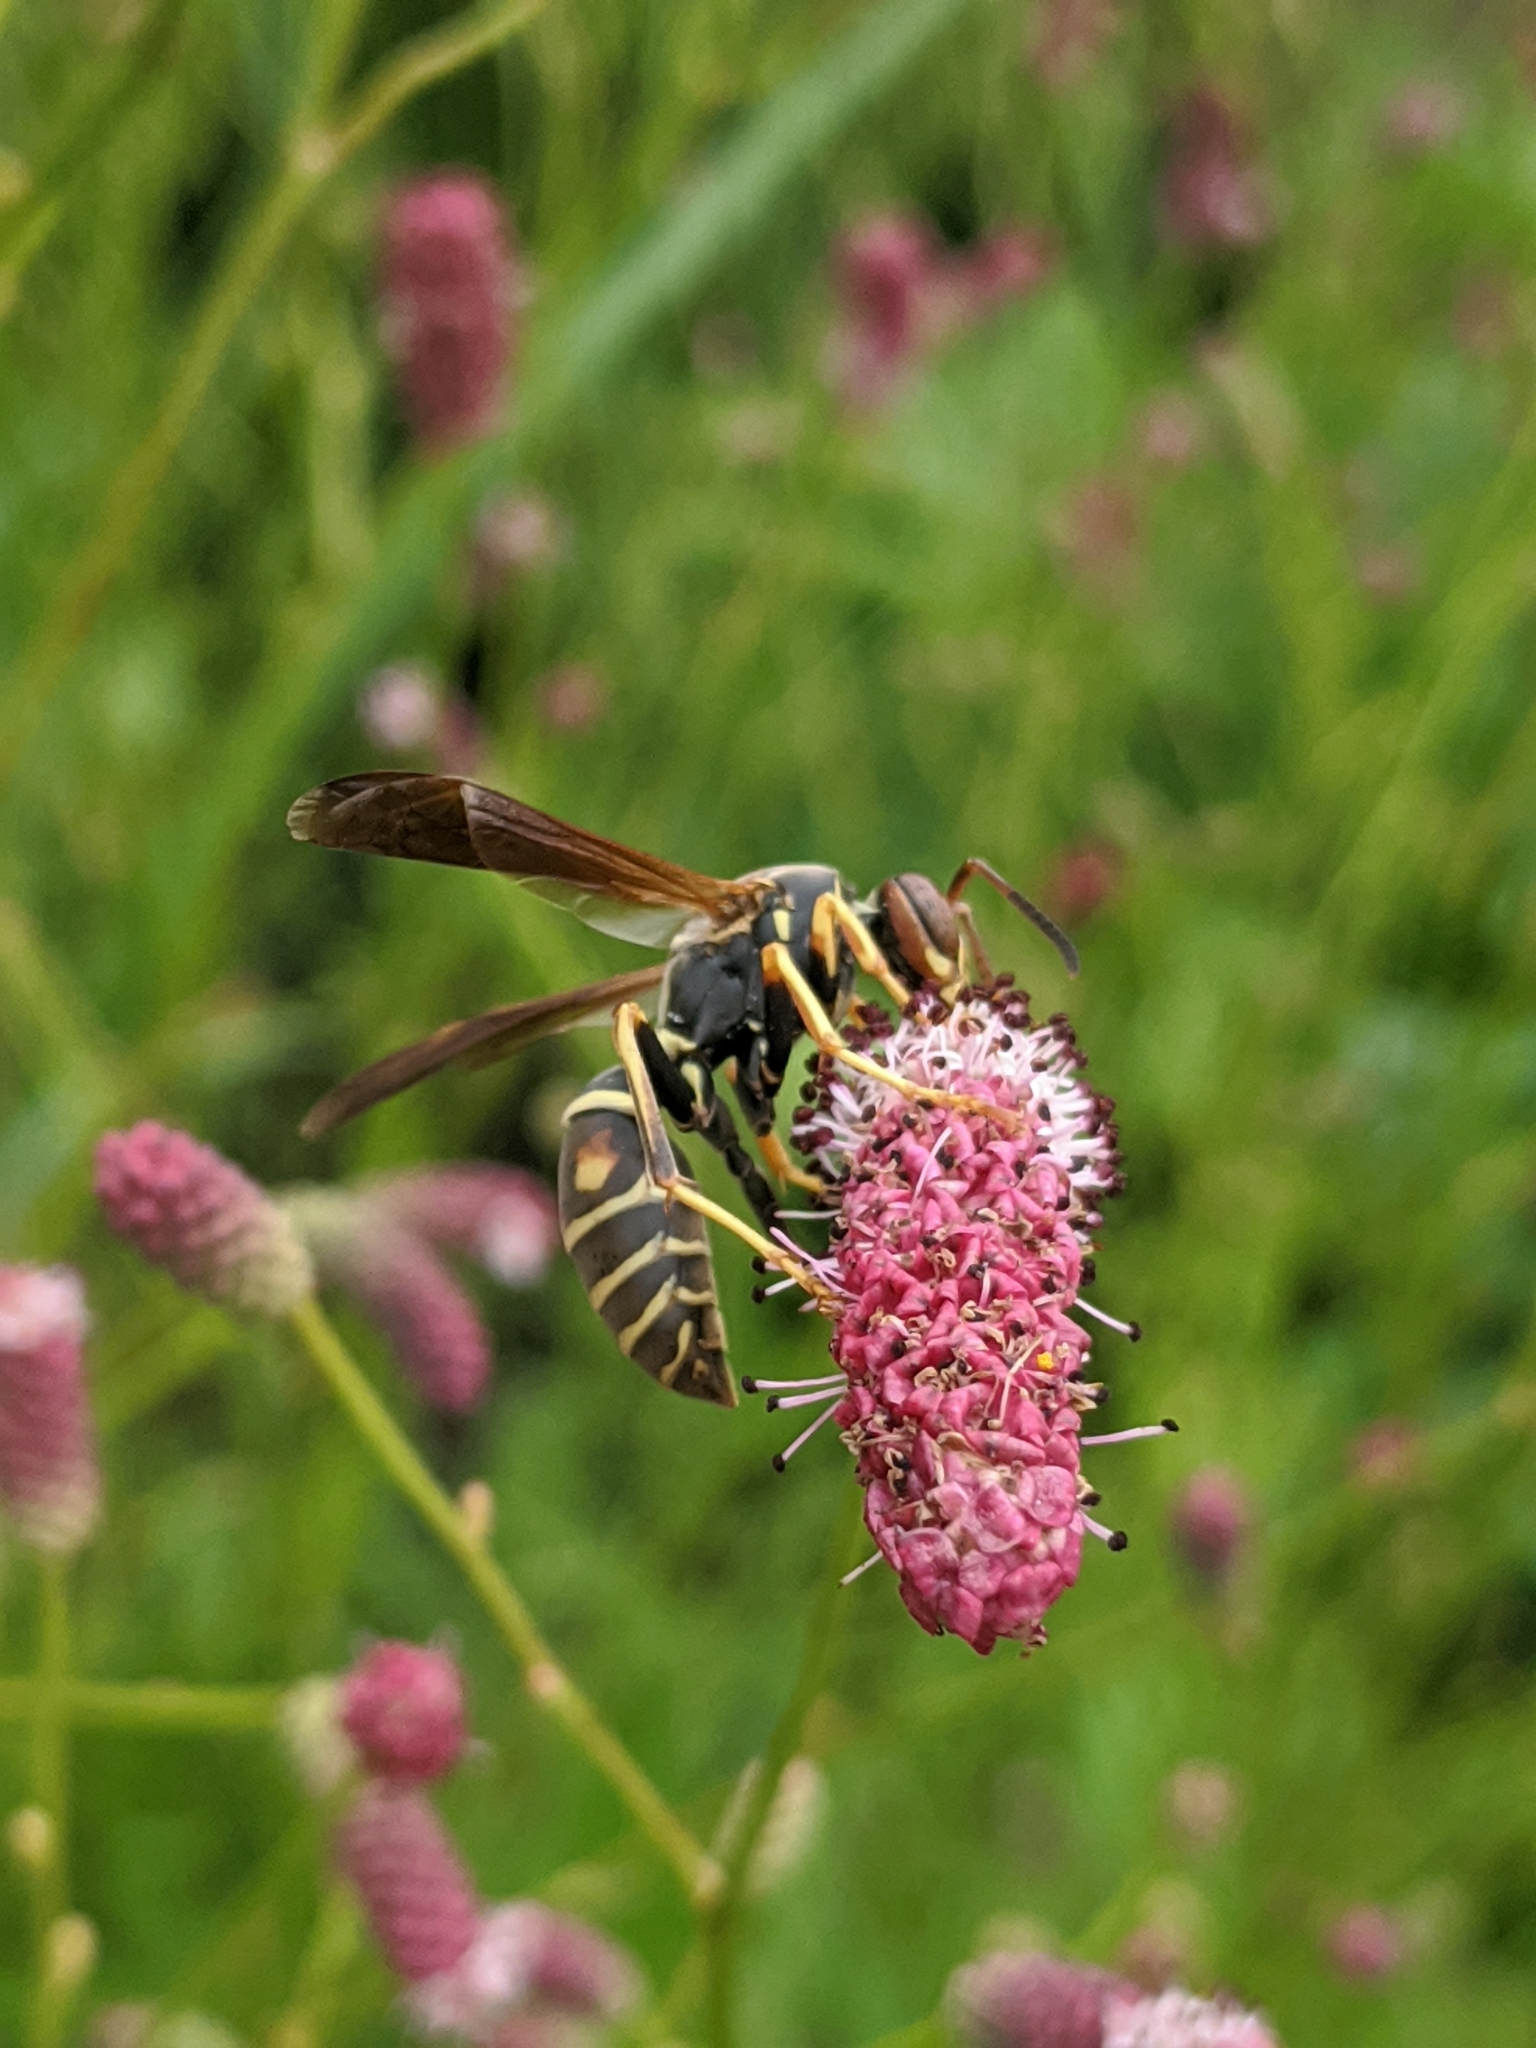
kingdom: Animalia
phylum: Arthropoda
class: Insecta
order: Hymenoptera
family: Eumenidae
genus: Polistes
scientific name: Polistes fuscatus
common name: Dark paper wasp
